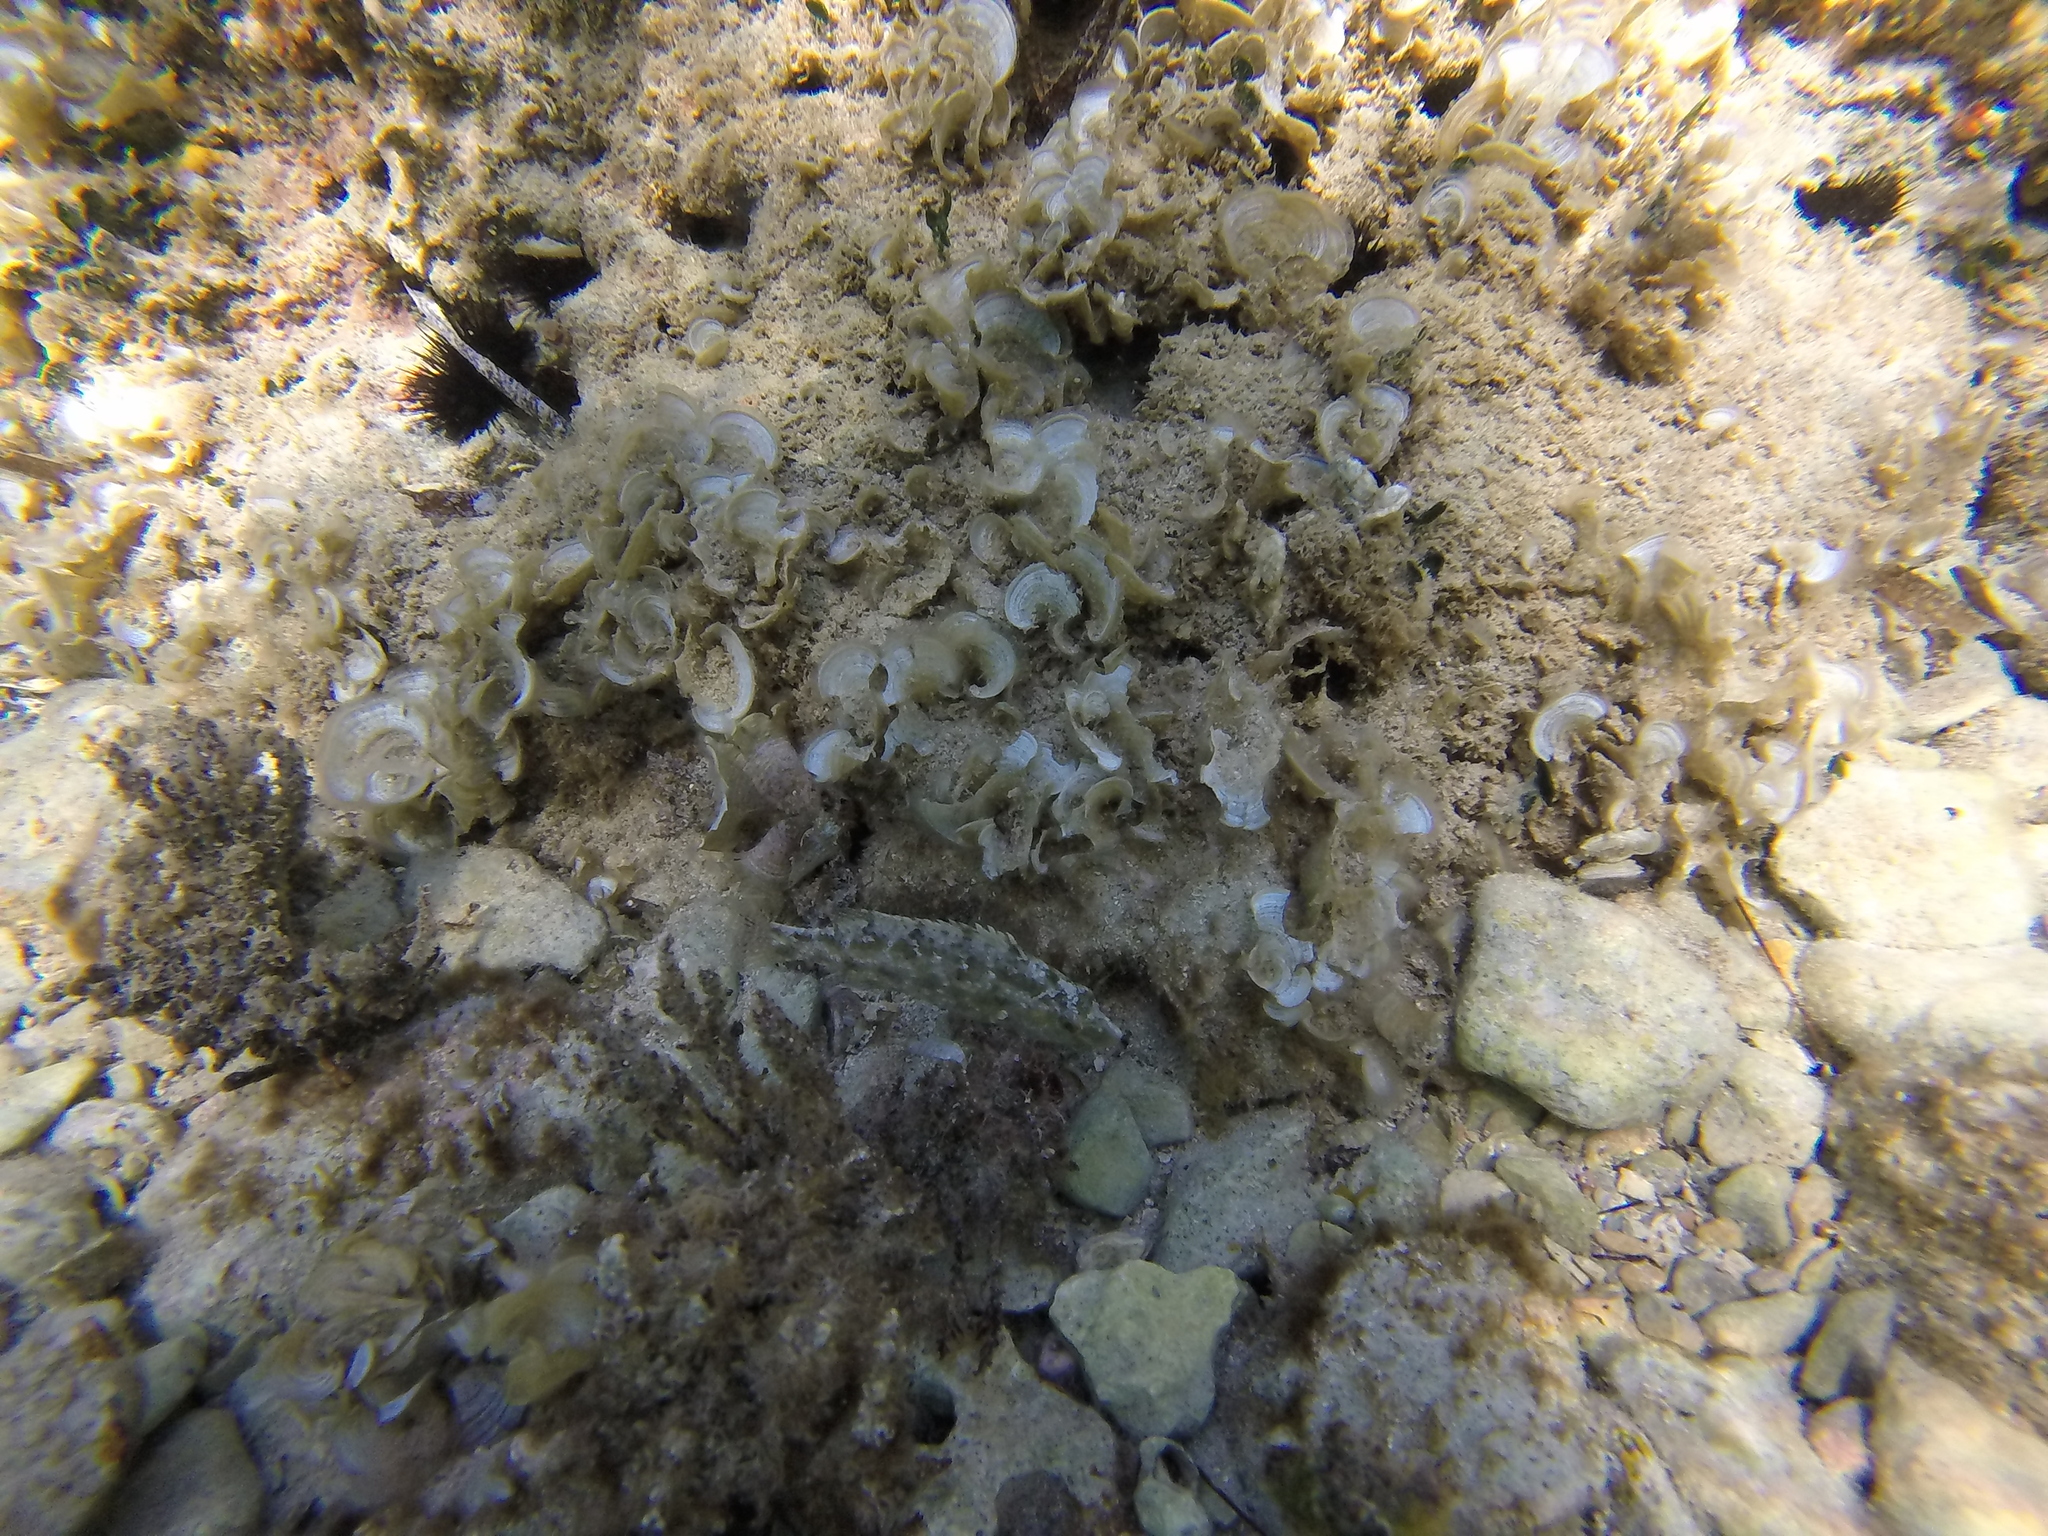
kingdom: Animalia
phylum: Chordata
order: Perciformes
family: Labridae
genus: Symphodus
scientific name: Symphodus cinereus
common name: Grey wrasse
